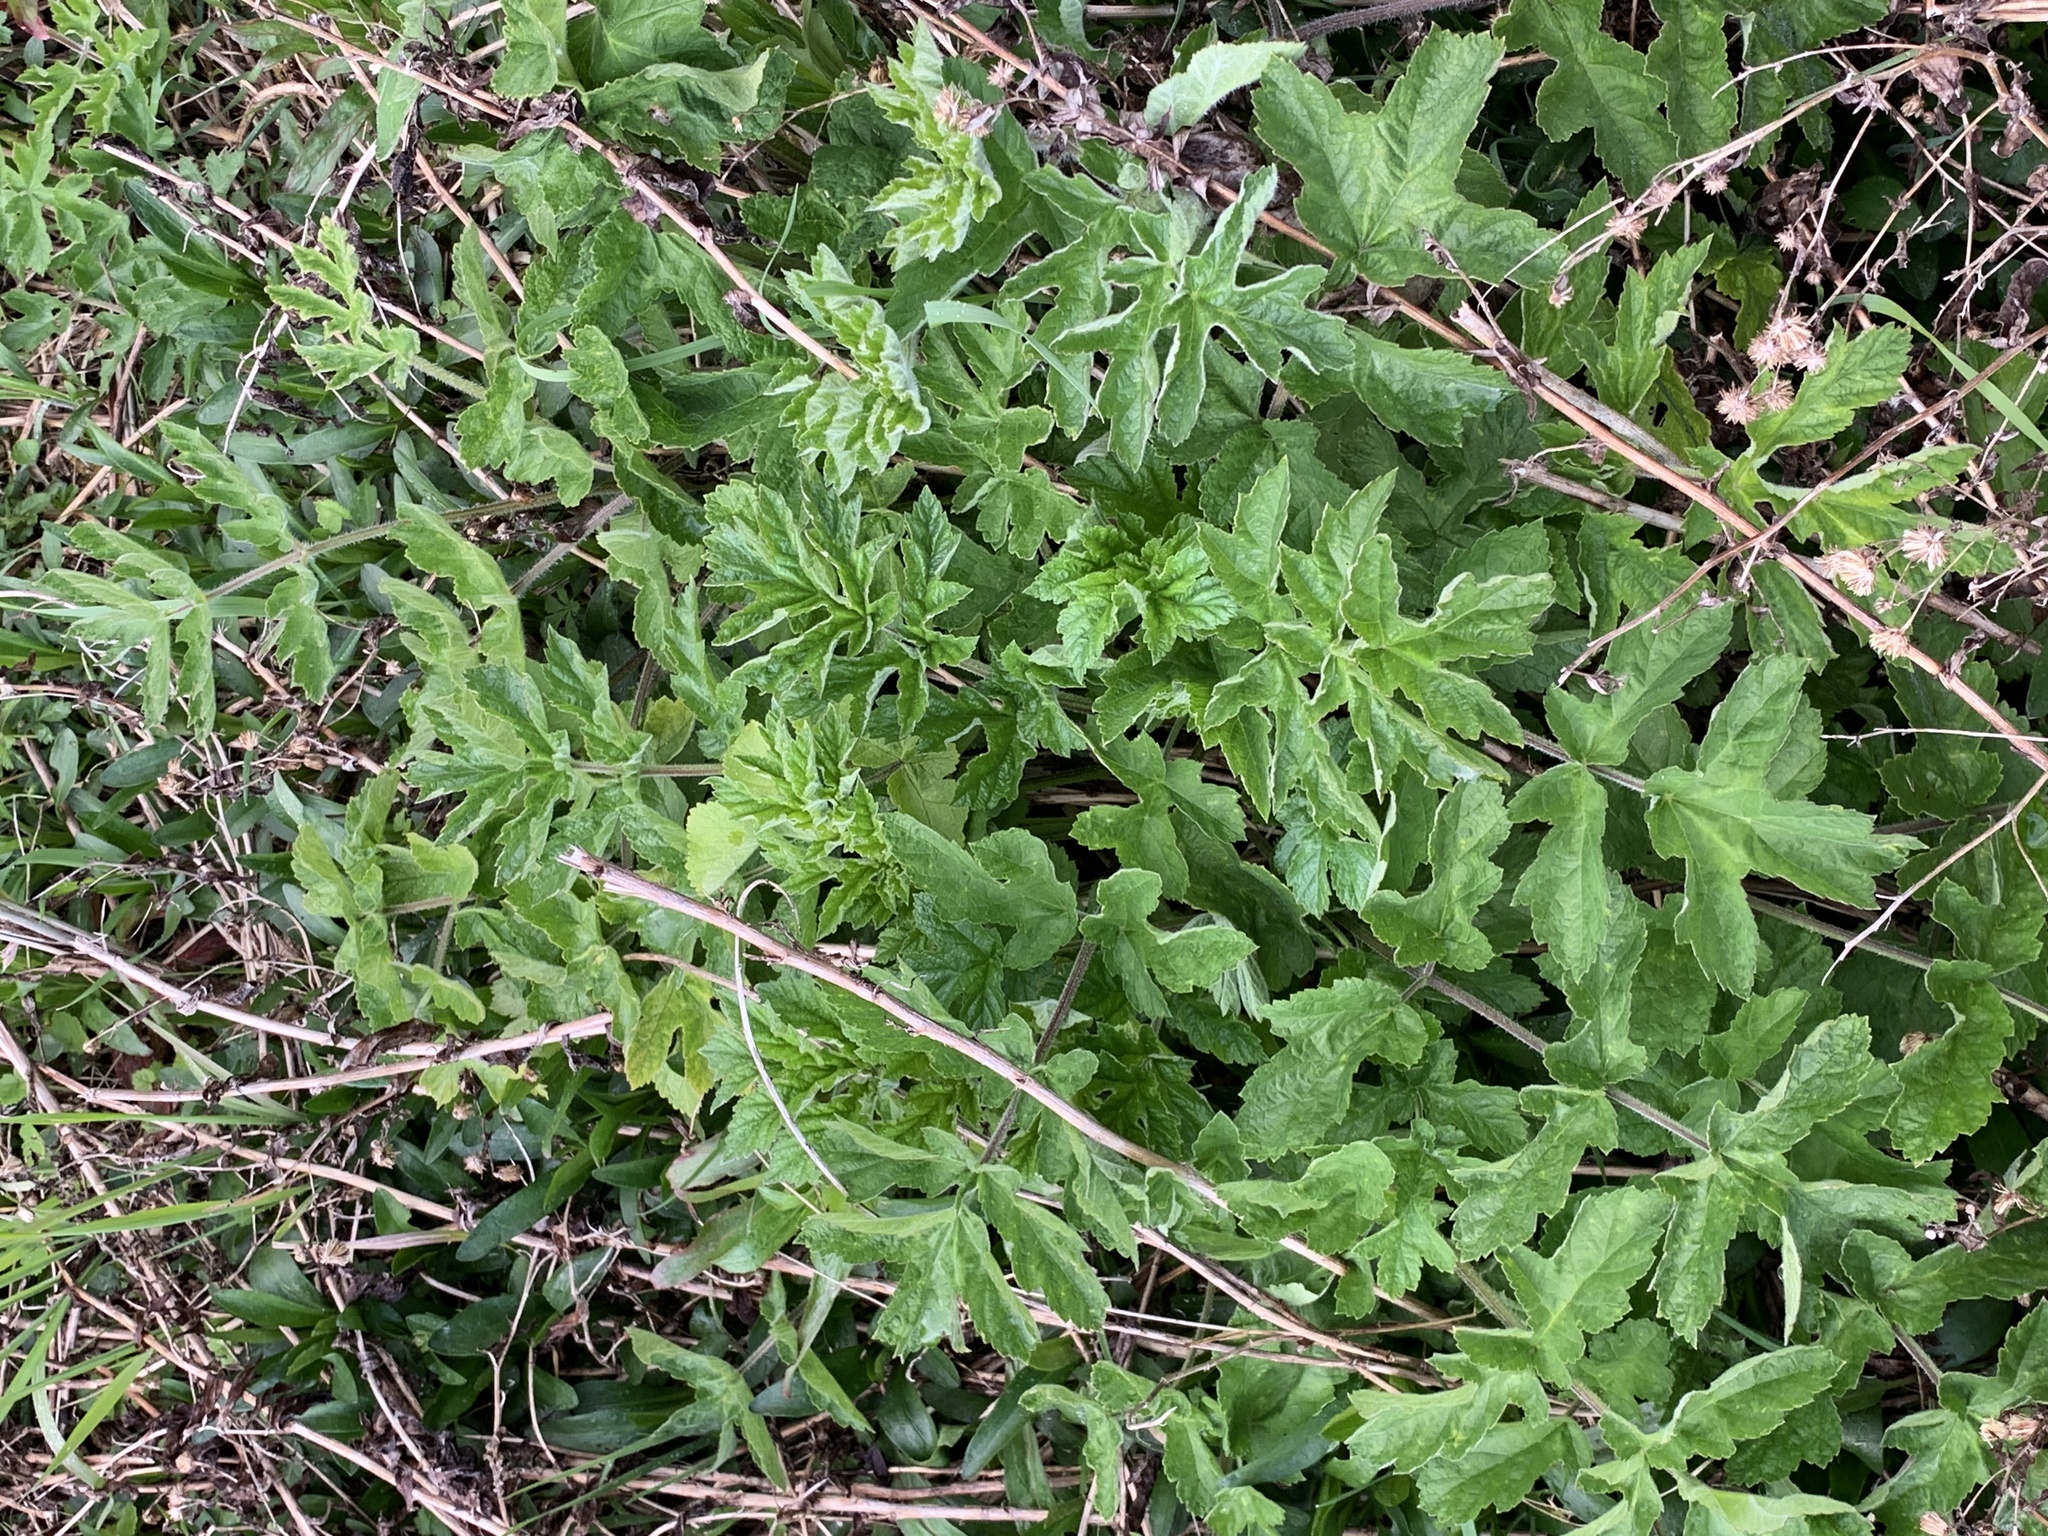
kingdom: Plantae
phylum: Tracheophyta
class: Magnoliopsida
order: Apiales
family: Apiaceae
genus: Heracleum
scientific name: Heracleum sphondylium
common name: Hogweed
